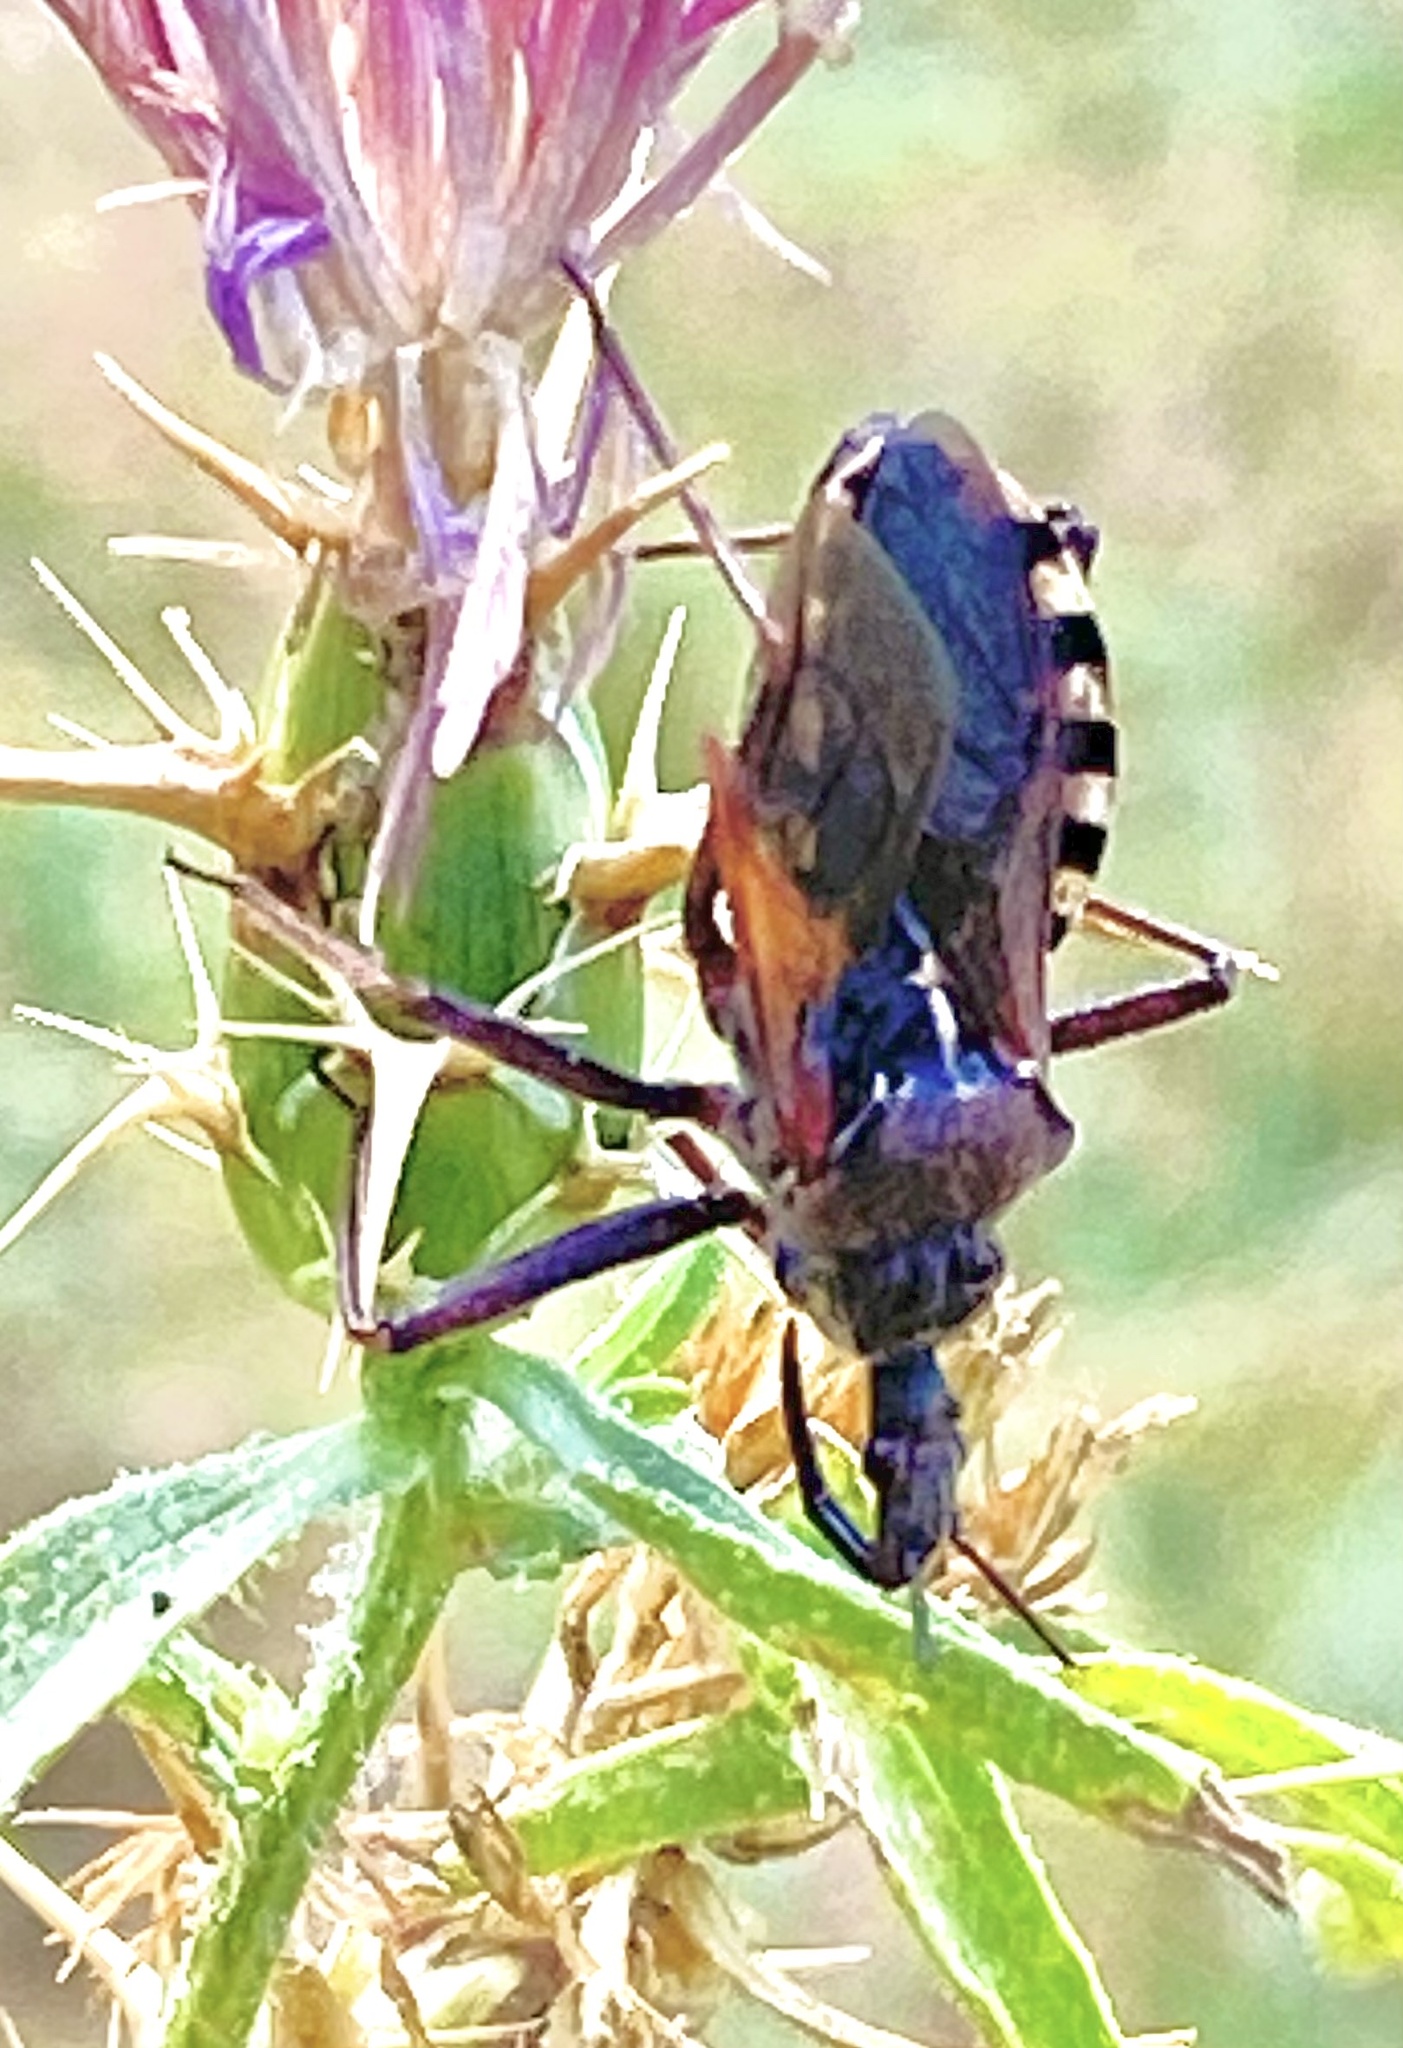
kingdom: Animalia
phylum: Arthropoda
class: Insecta
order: Hemiptera
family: Reduviidae
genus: Rhynocoris
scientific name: Rhynocoris erythropus
